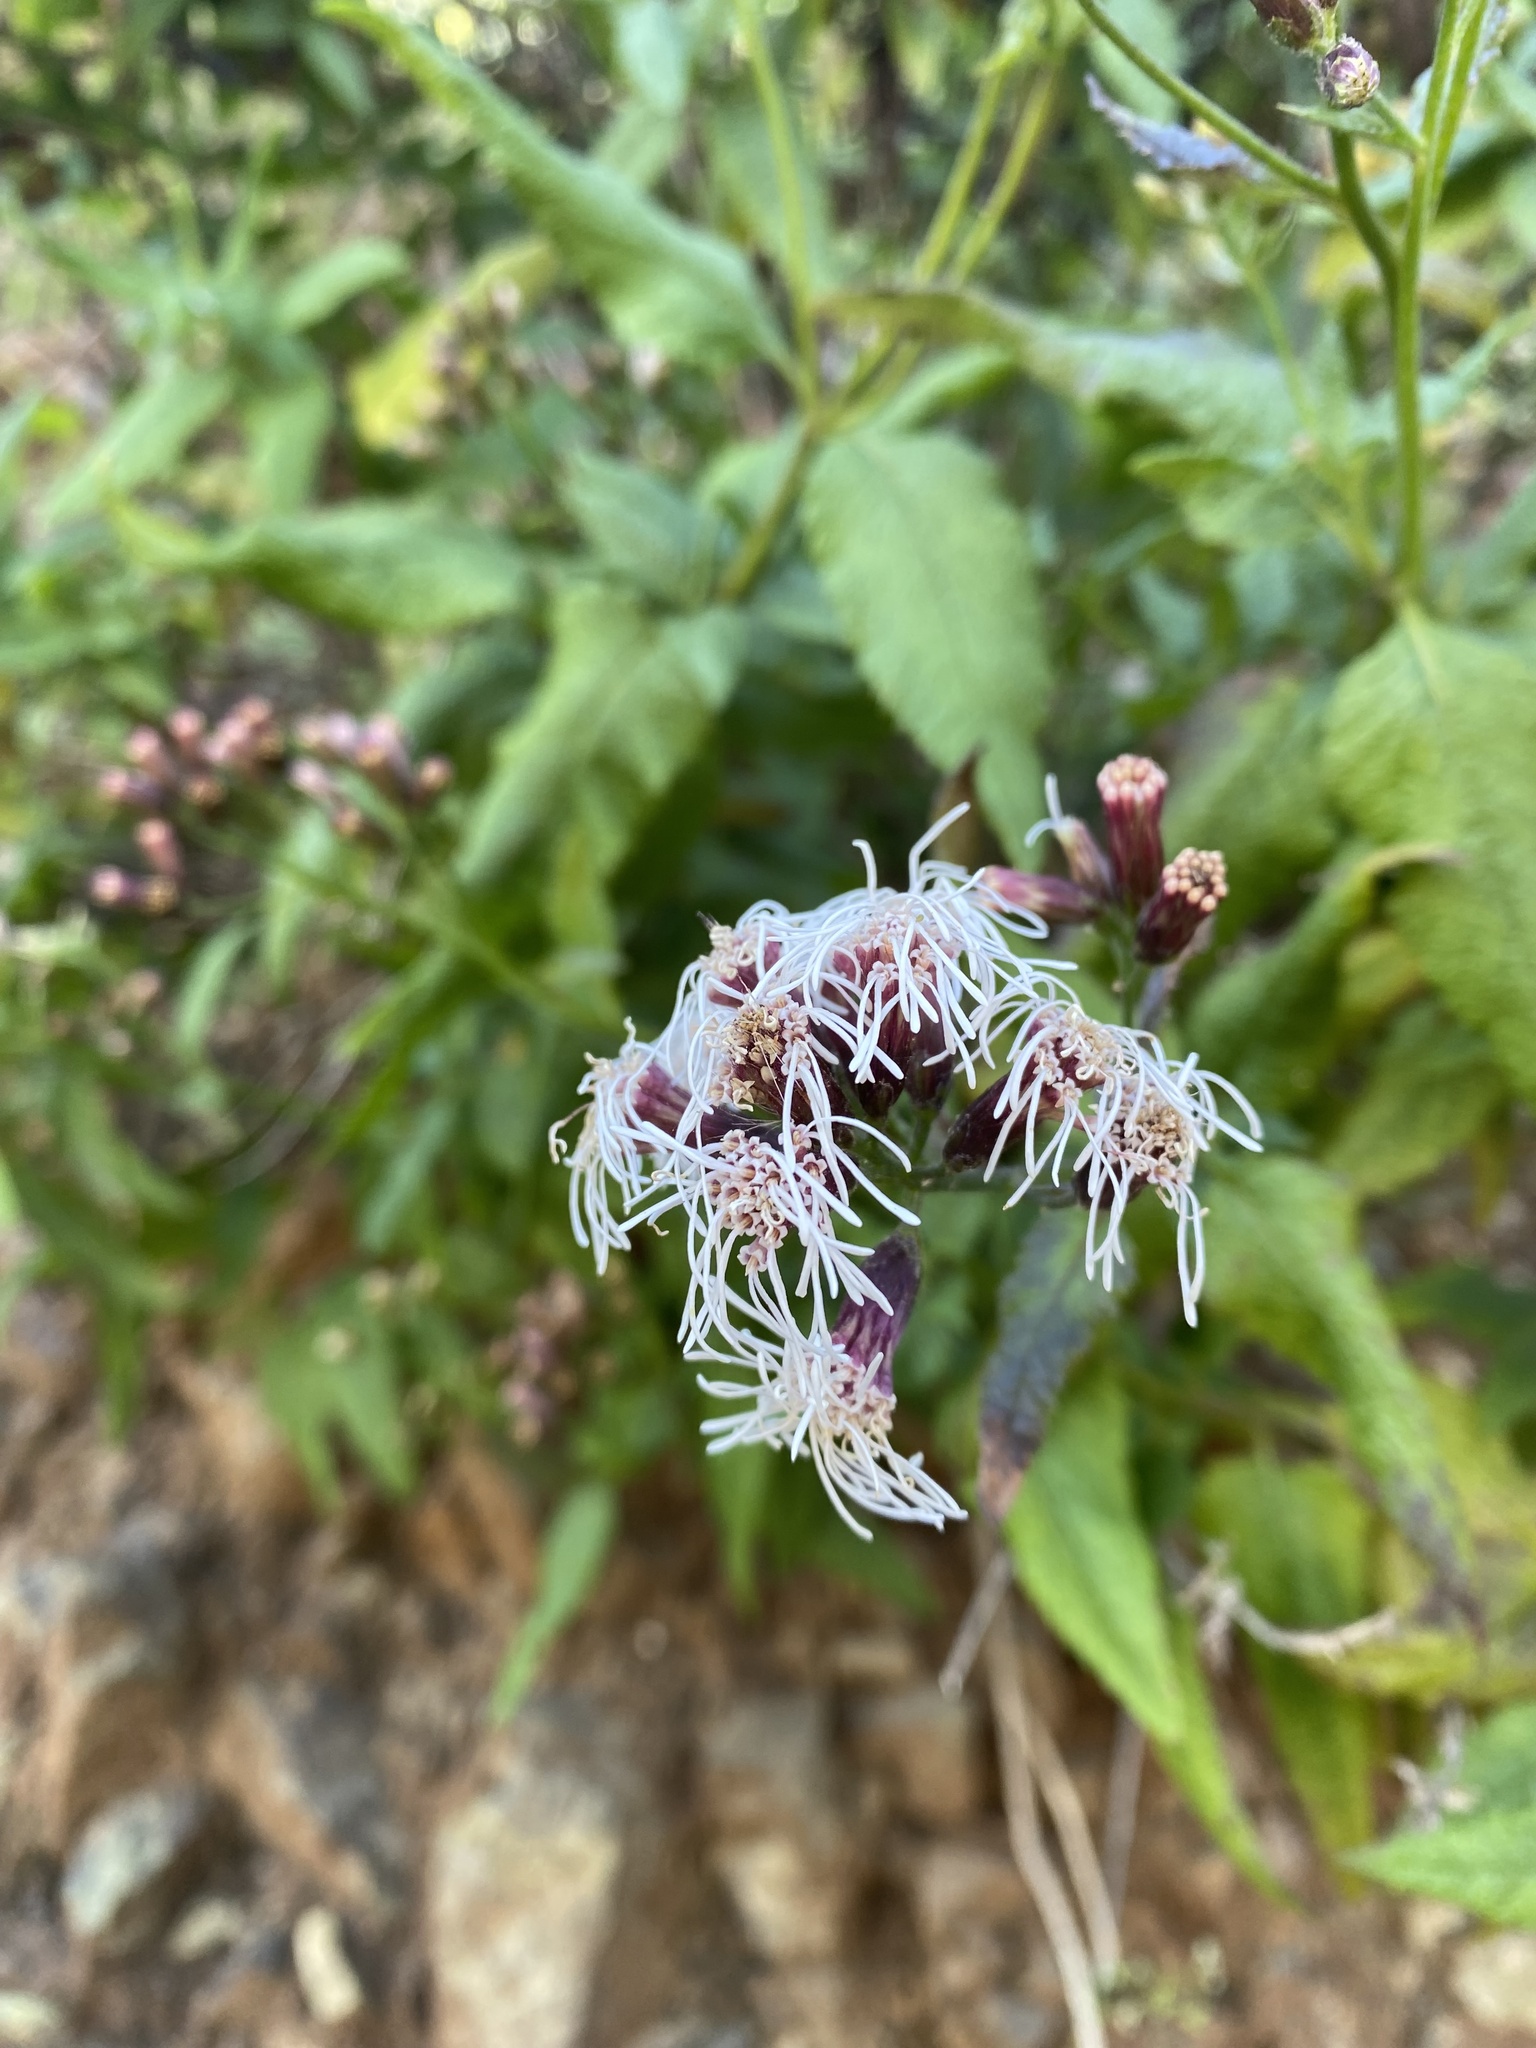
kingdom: Plantae
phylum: Tracheophyta
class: Magnoliopsida
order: Asterales
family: Asteraceae
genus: Aristeguietia
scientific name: Aristeguietia salvia
